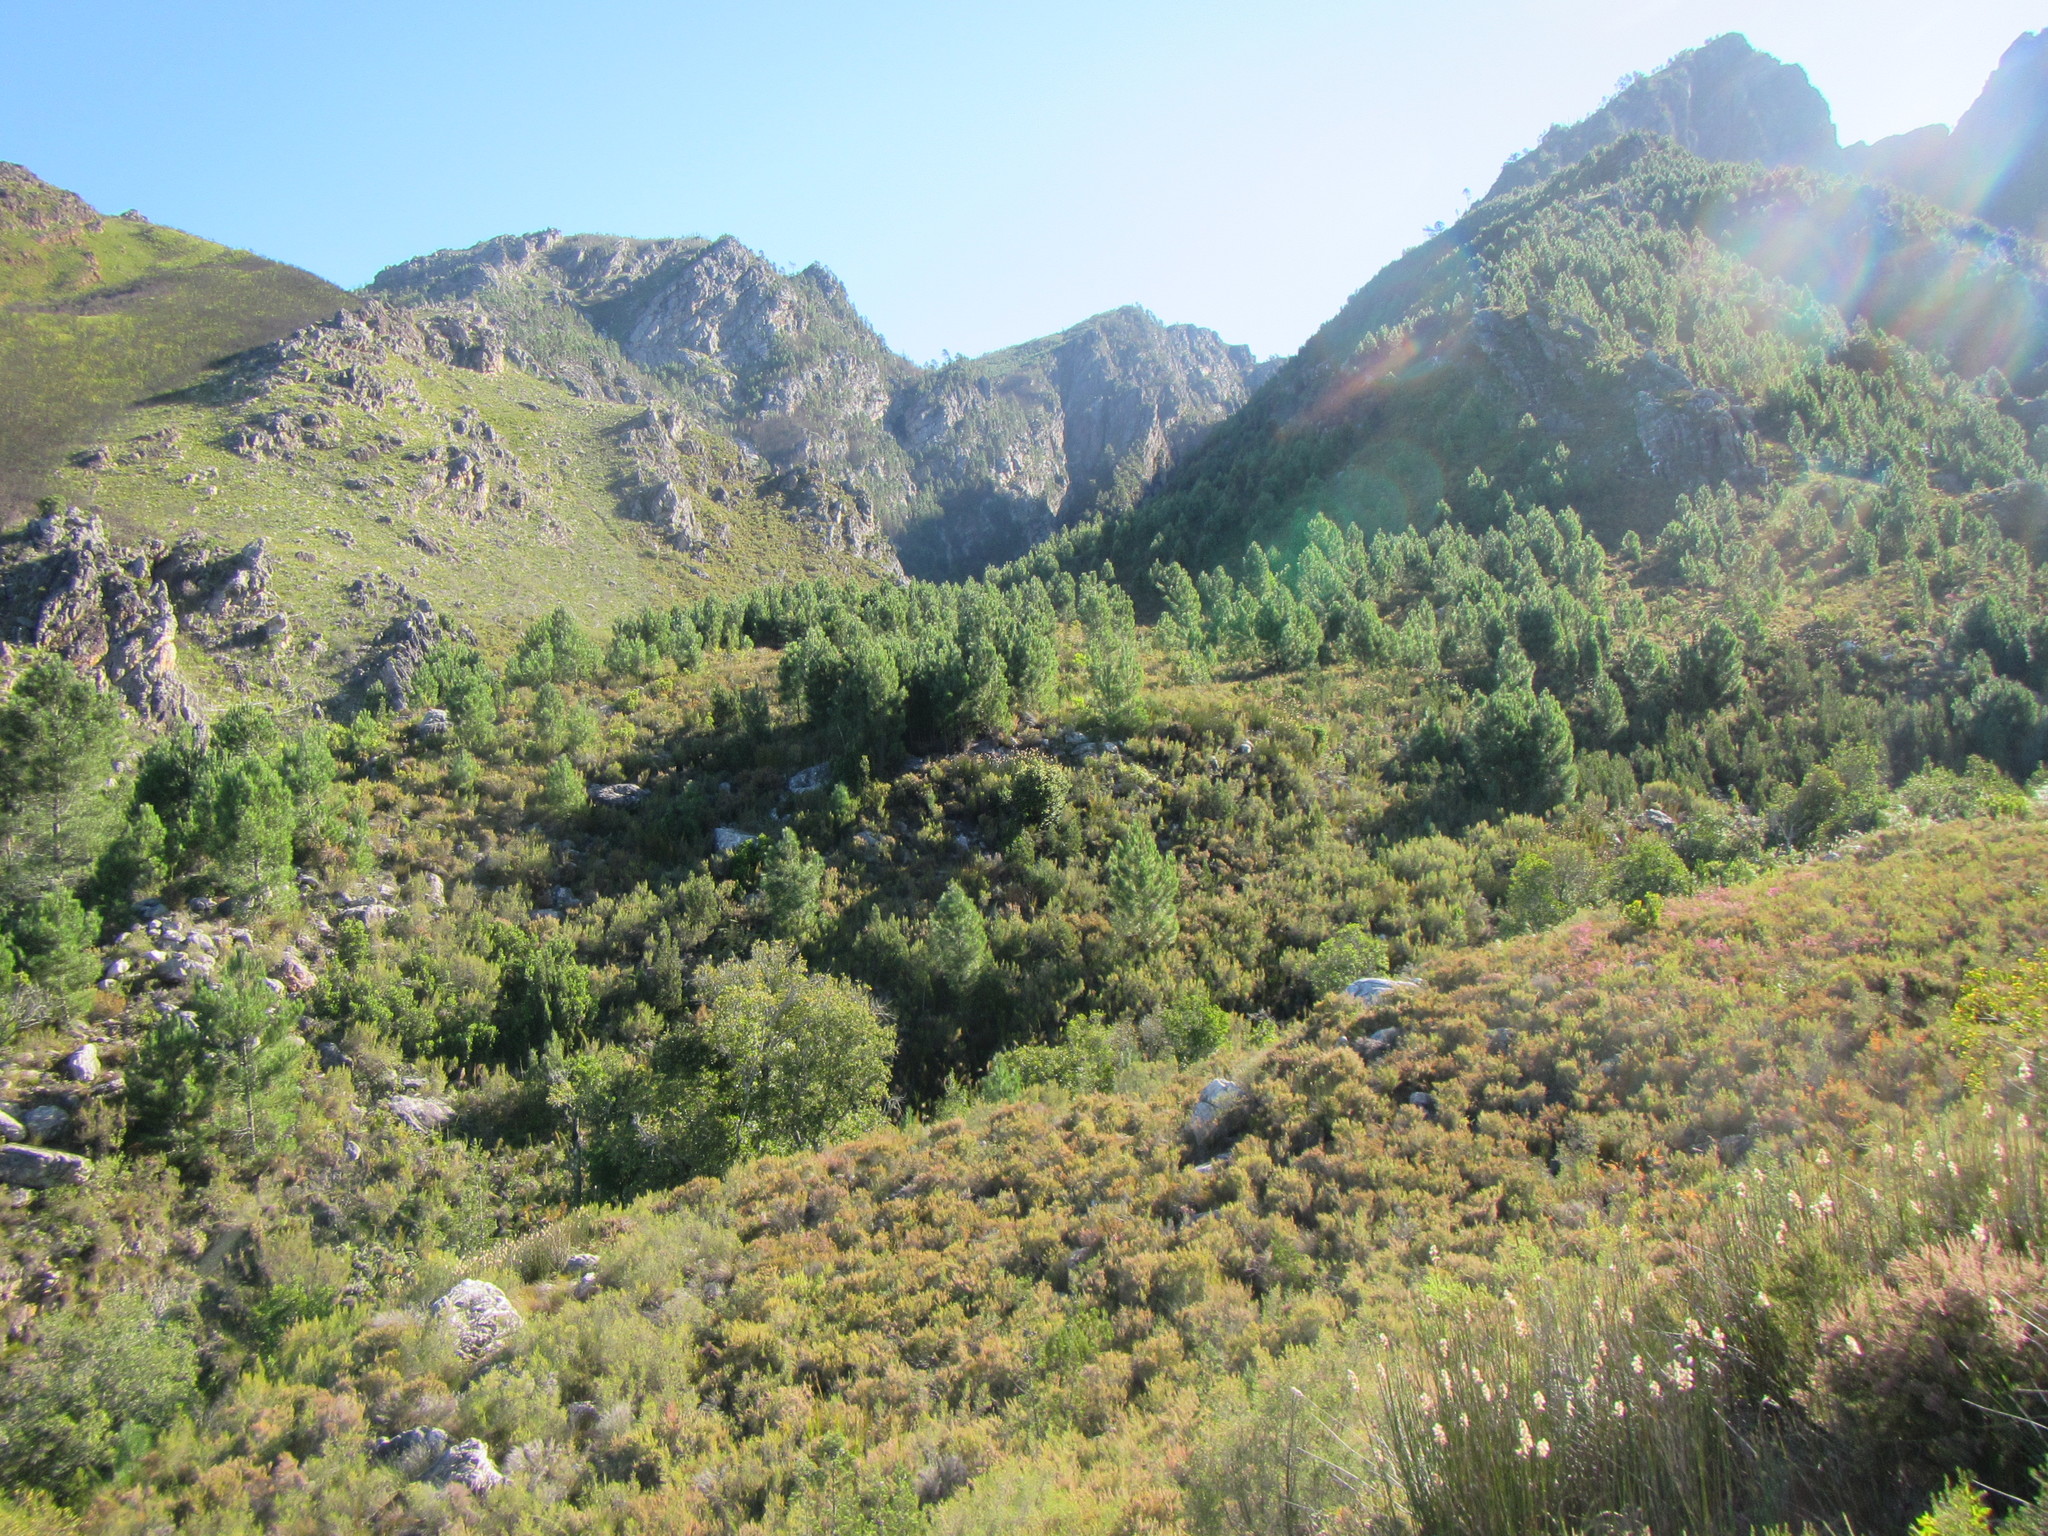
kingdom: Plantae
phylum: Tracheophyta
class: Pinopsida
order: Pinales
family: Pinaceae
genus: Pinus
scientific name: Pinus pinaster
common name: Maritime pine
